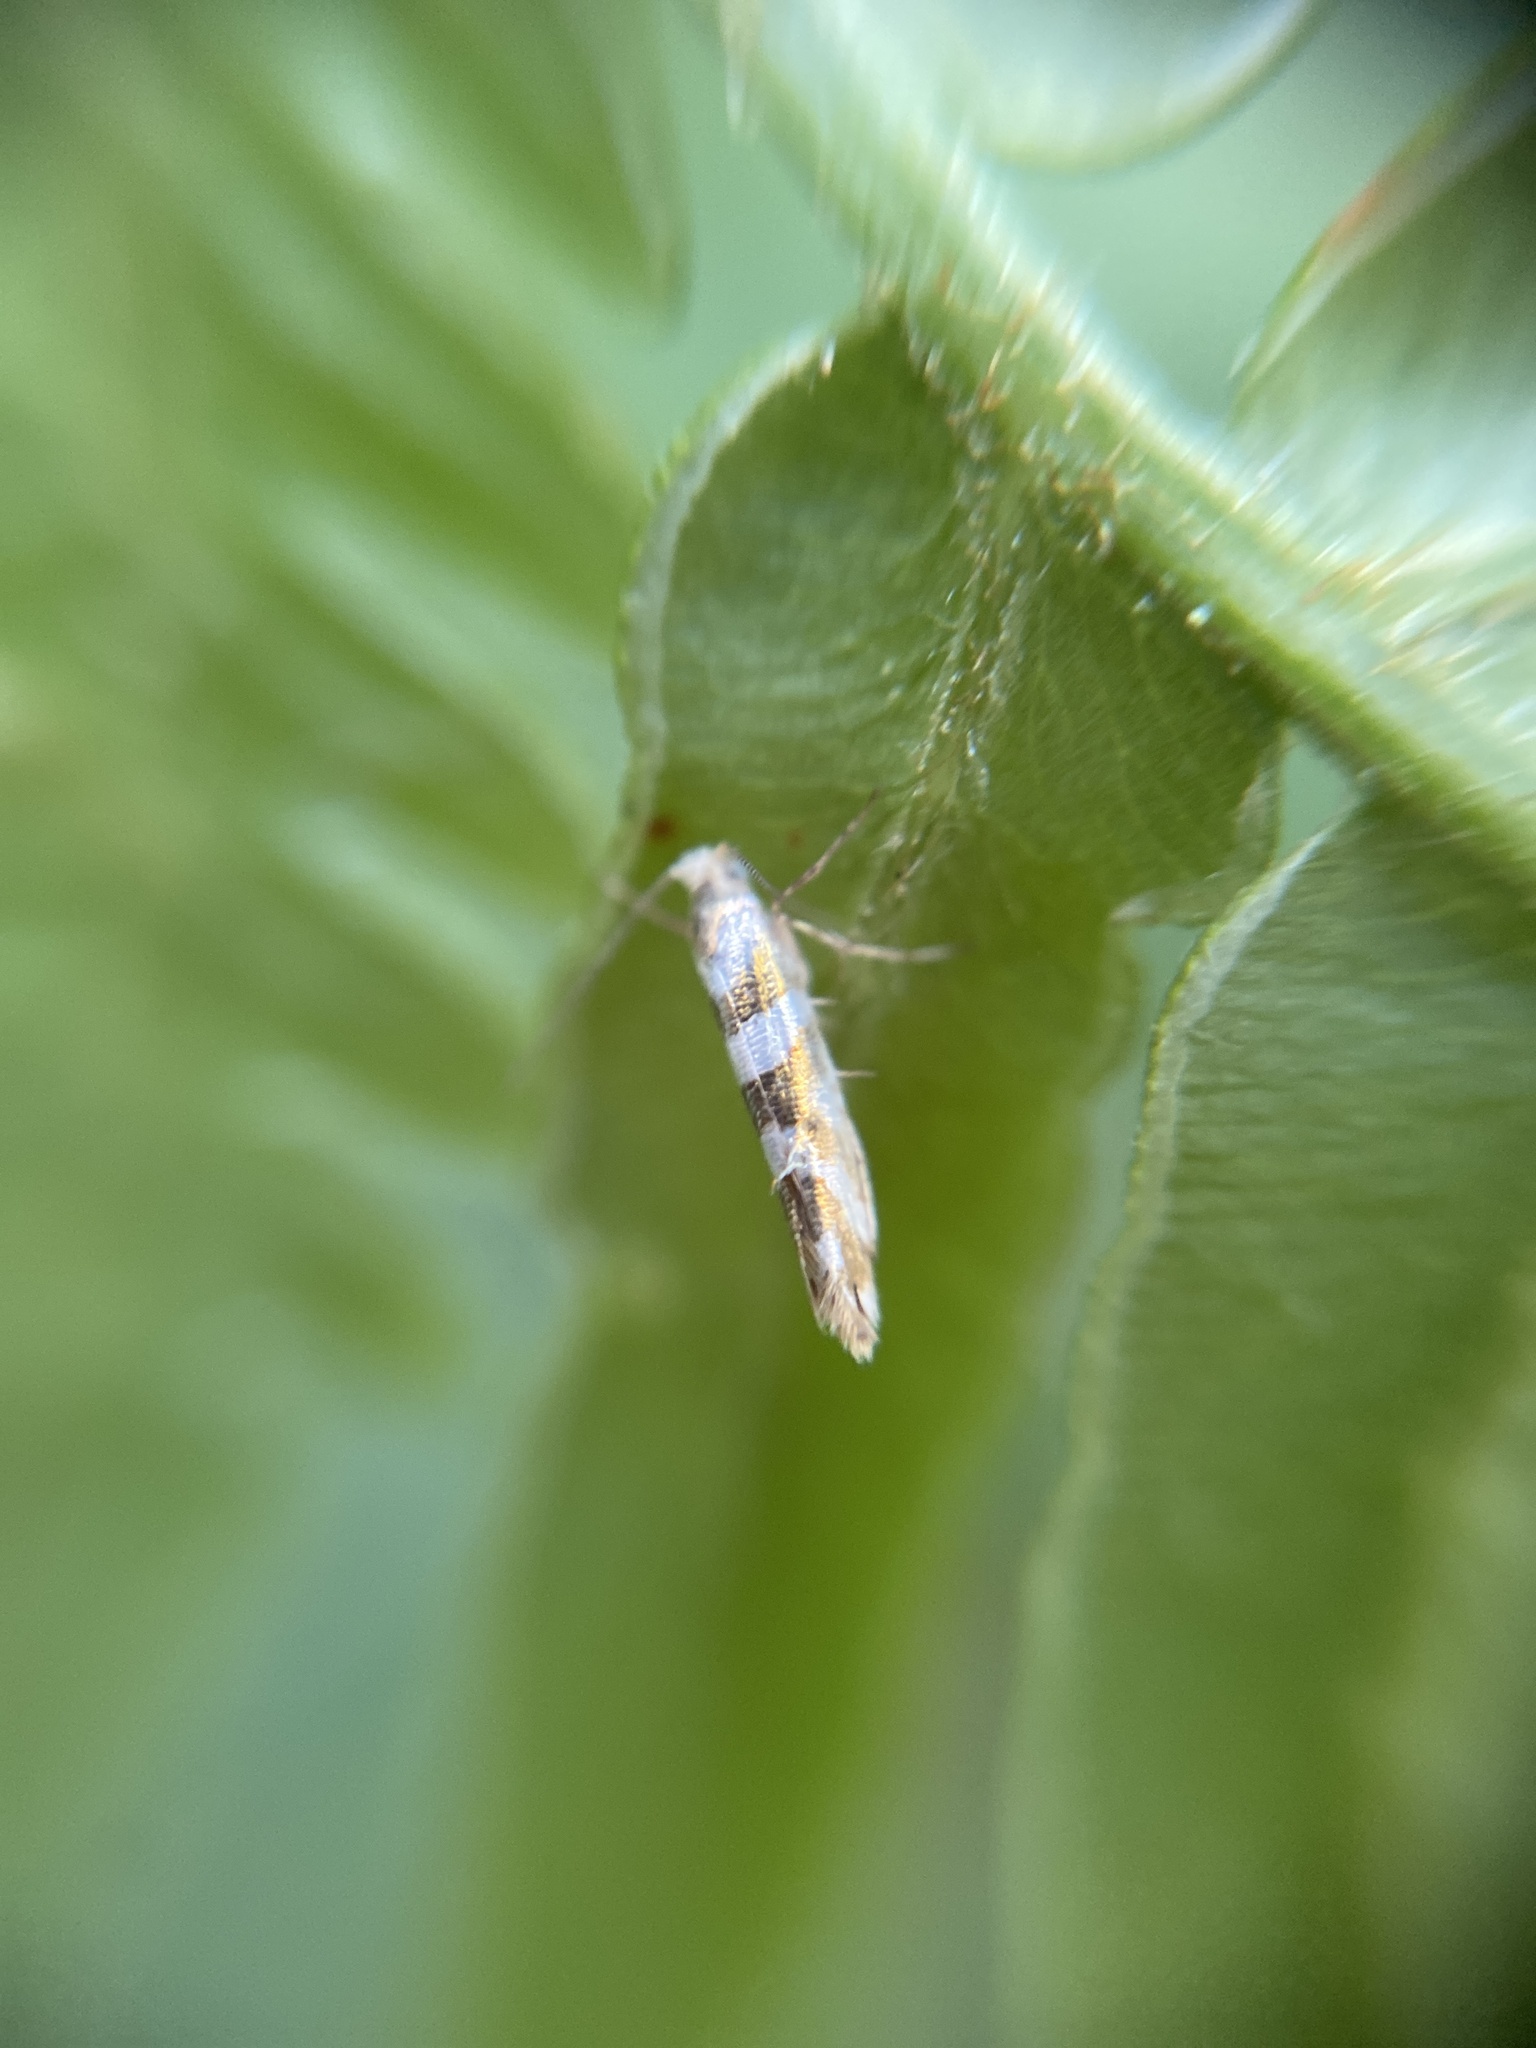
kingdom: Animalia
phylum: Arthropoda
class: Insecta
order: Lepidoptera
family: Argyresthiidae
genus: Argyresthia
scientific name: Argyresthia goedartella
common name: Golden argent
